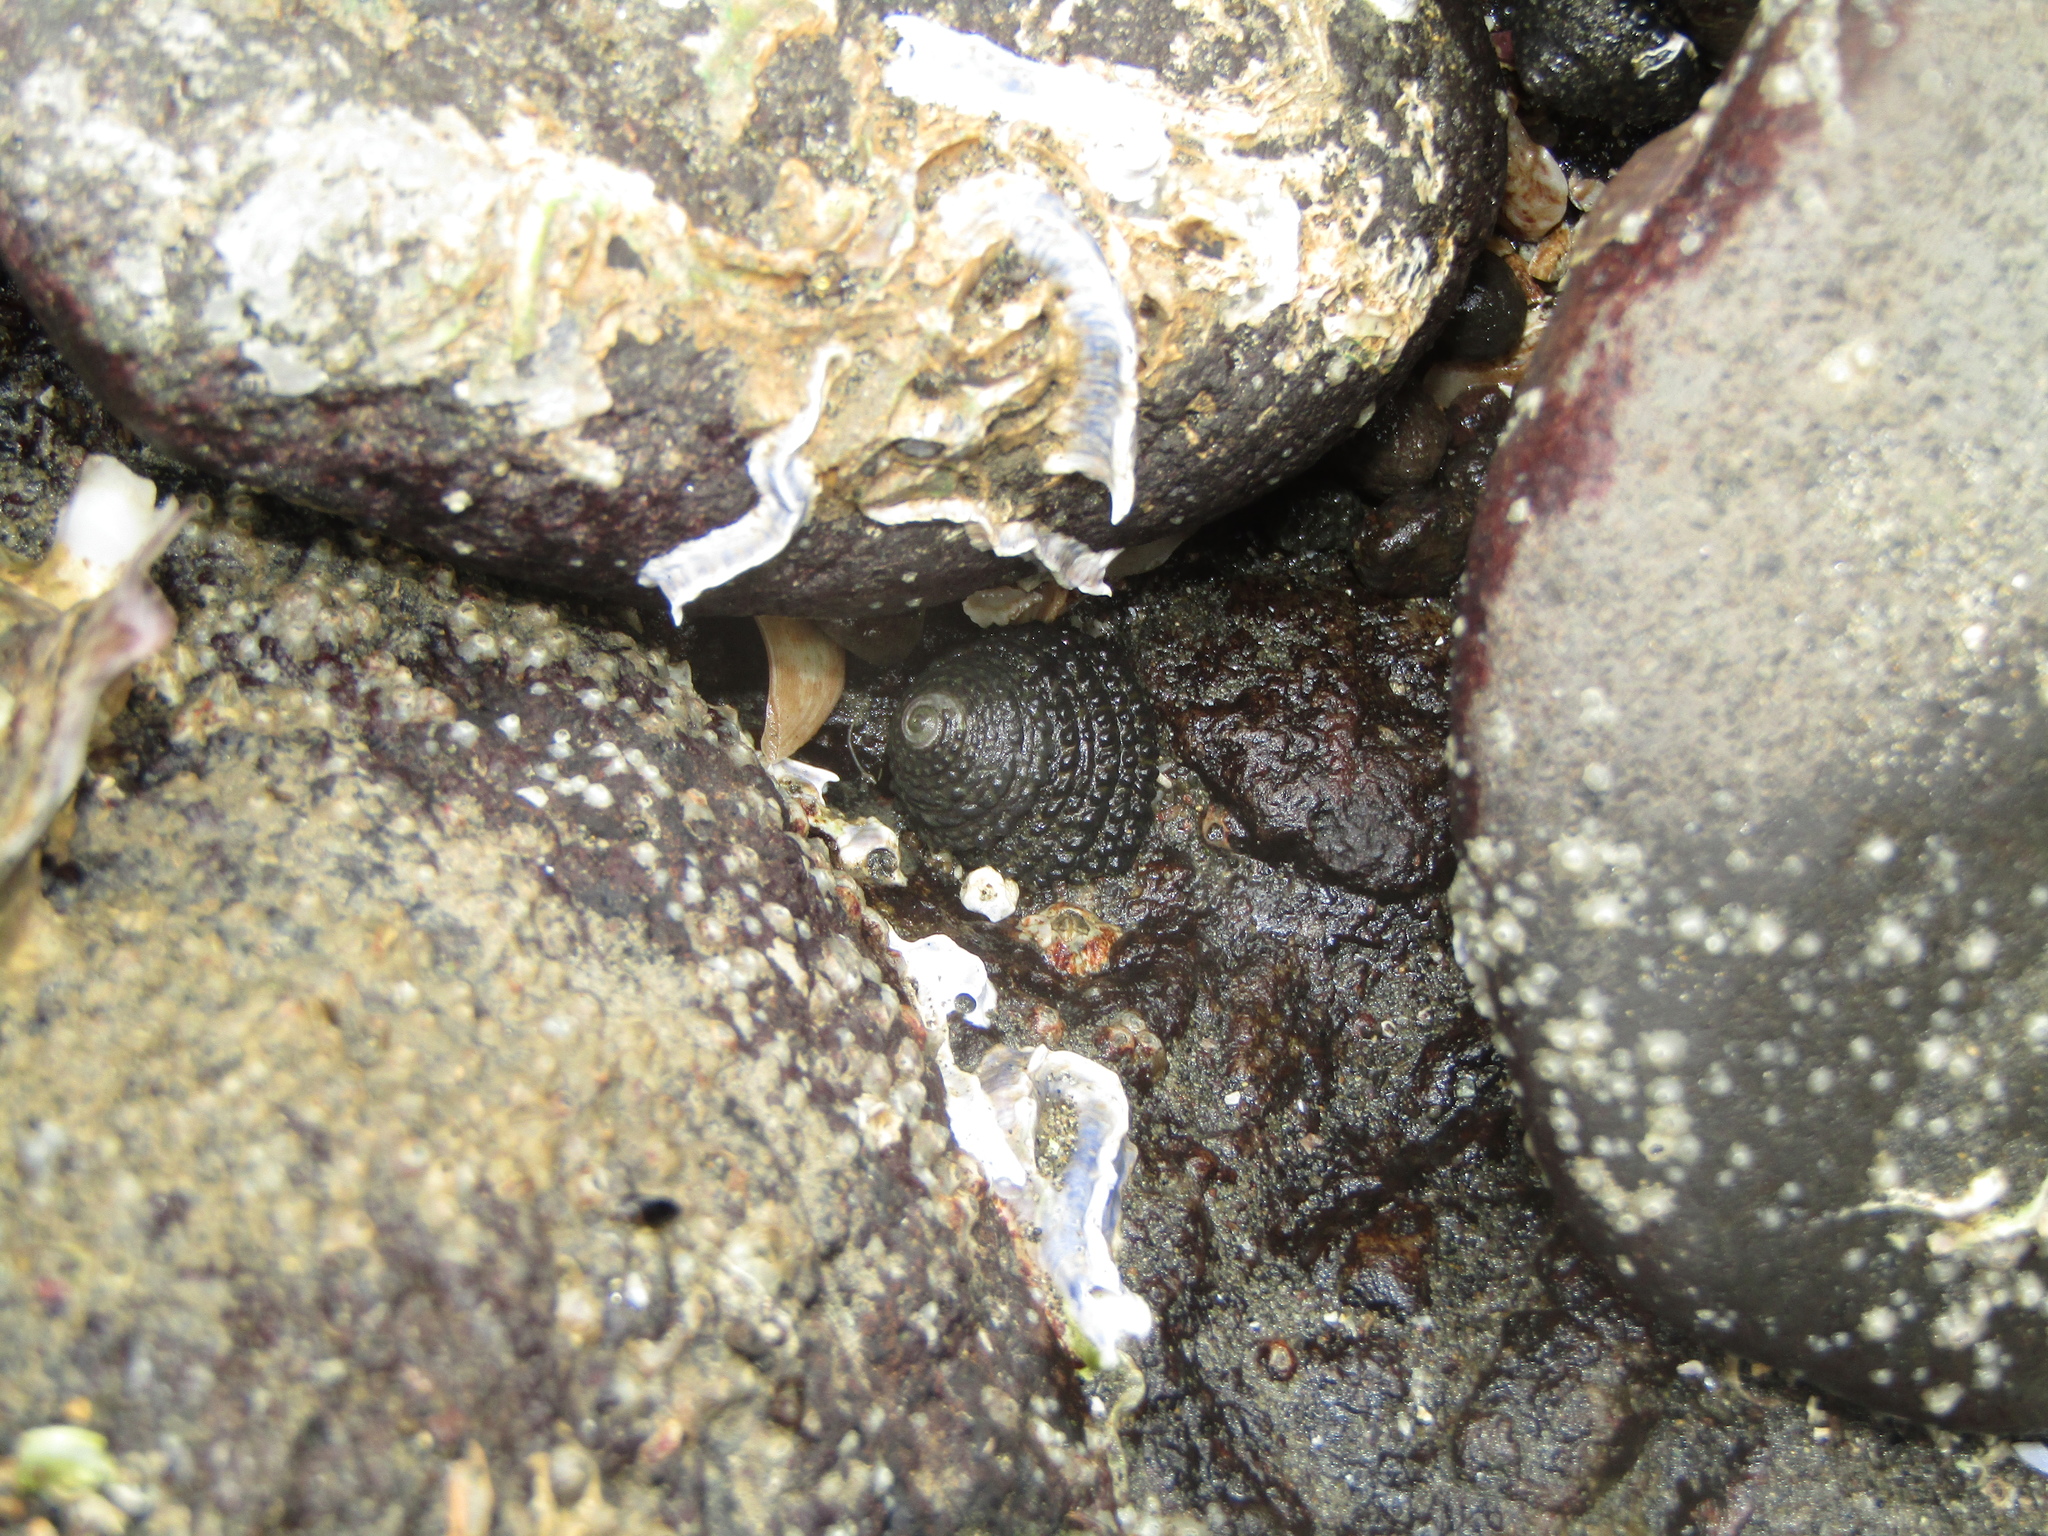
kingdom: Animalia
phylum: Mollusca
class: Gastropoda
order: Trochida
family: Trochidae
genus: Diloma
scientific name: Diloma bicanaliculatum
